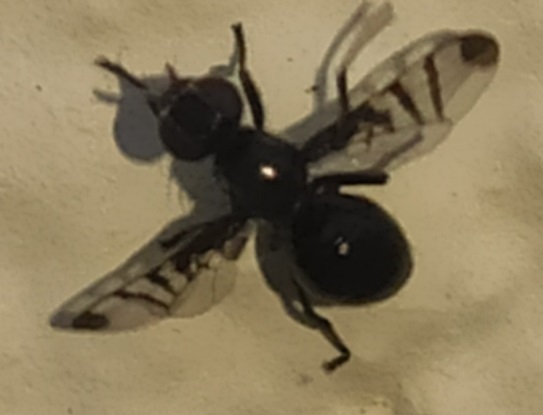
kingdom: Animalia
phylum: Arthropoda
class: Insecta
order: Diptera
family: Platystomatidae
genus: Rivellia
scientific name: Rivellia syngenesiae
